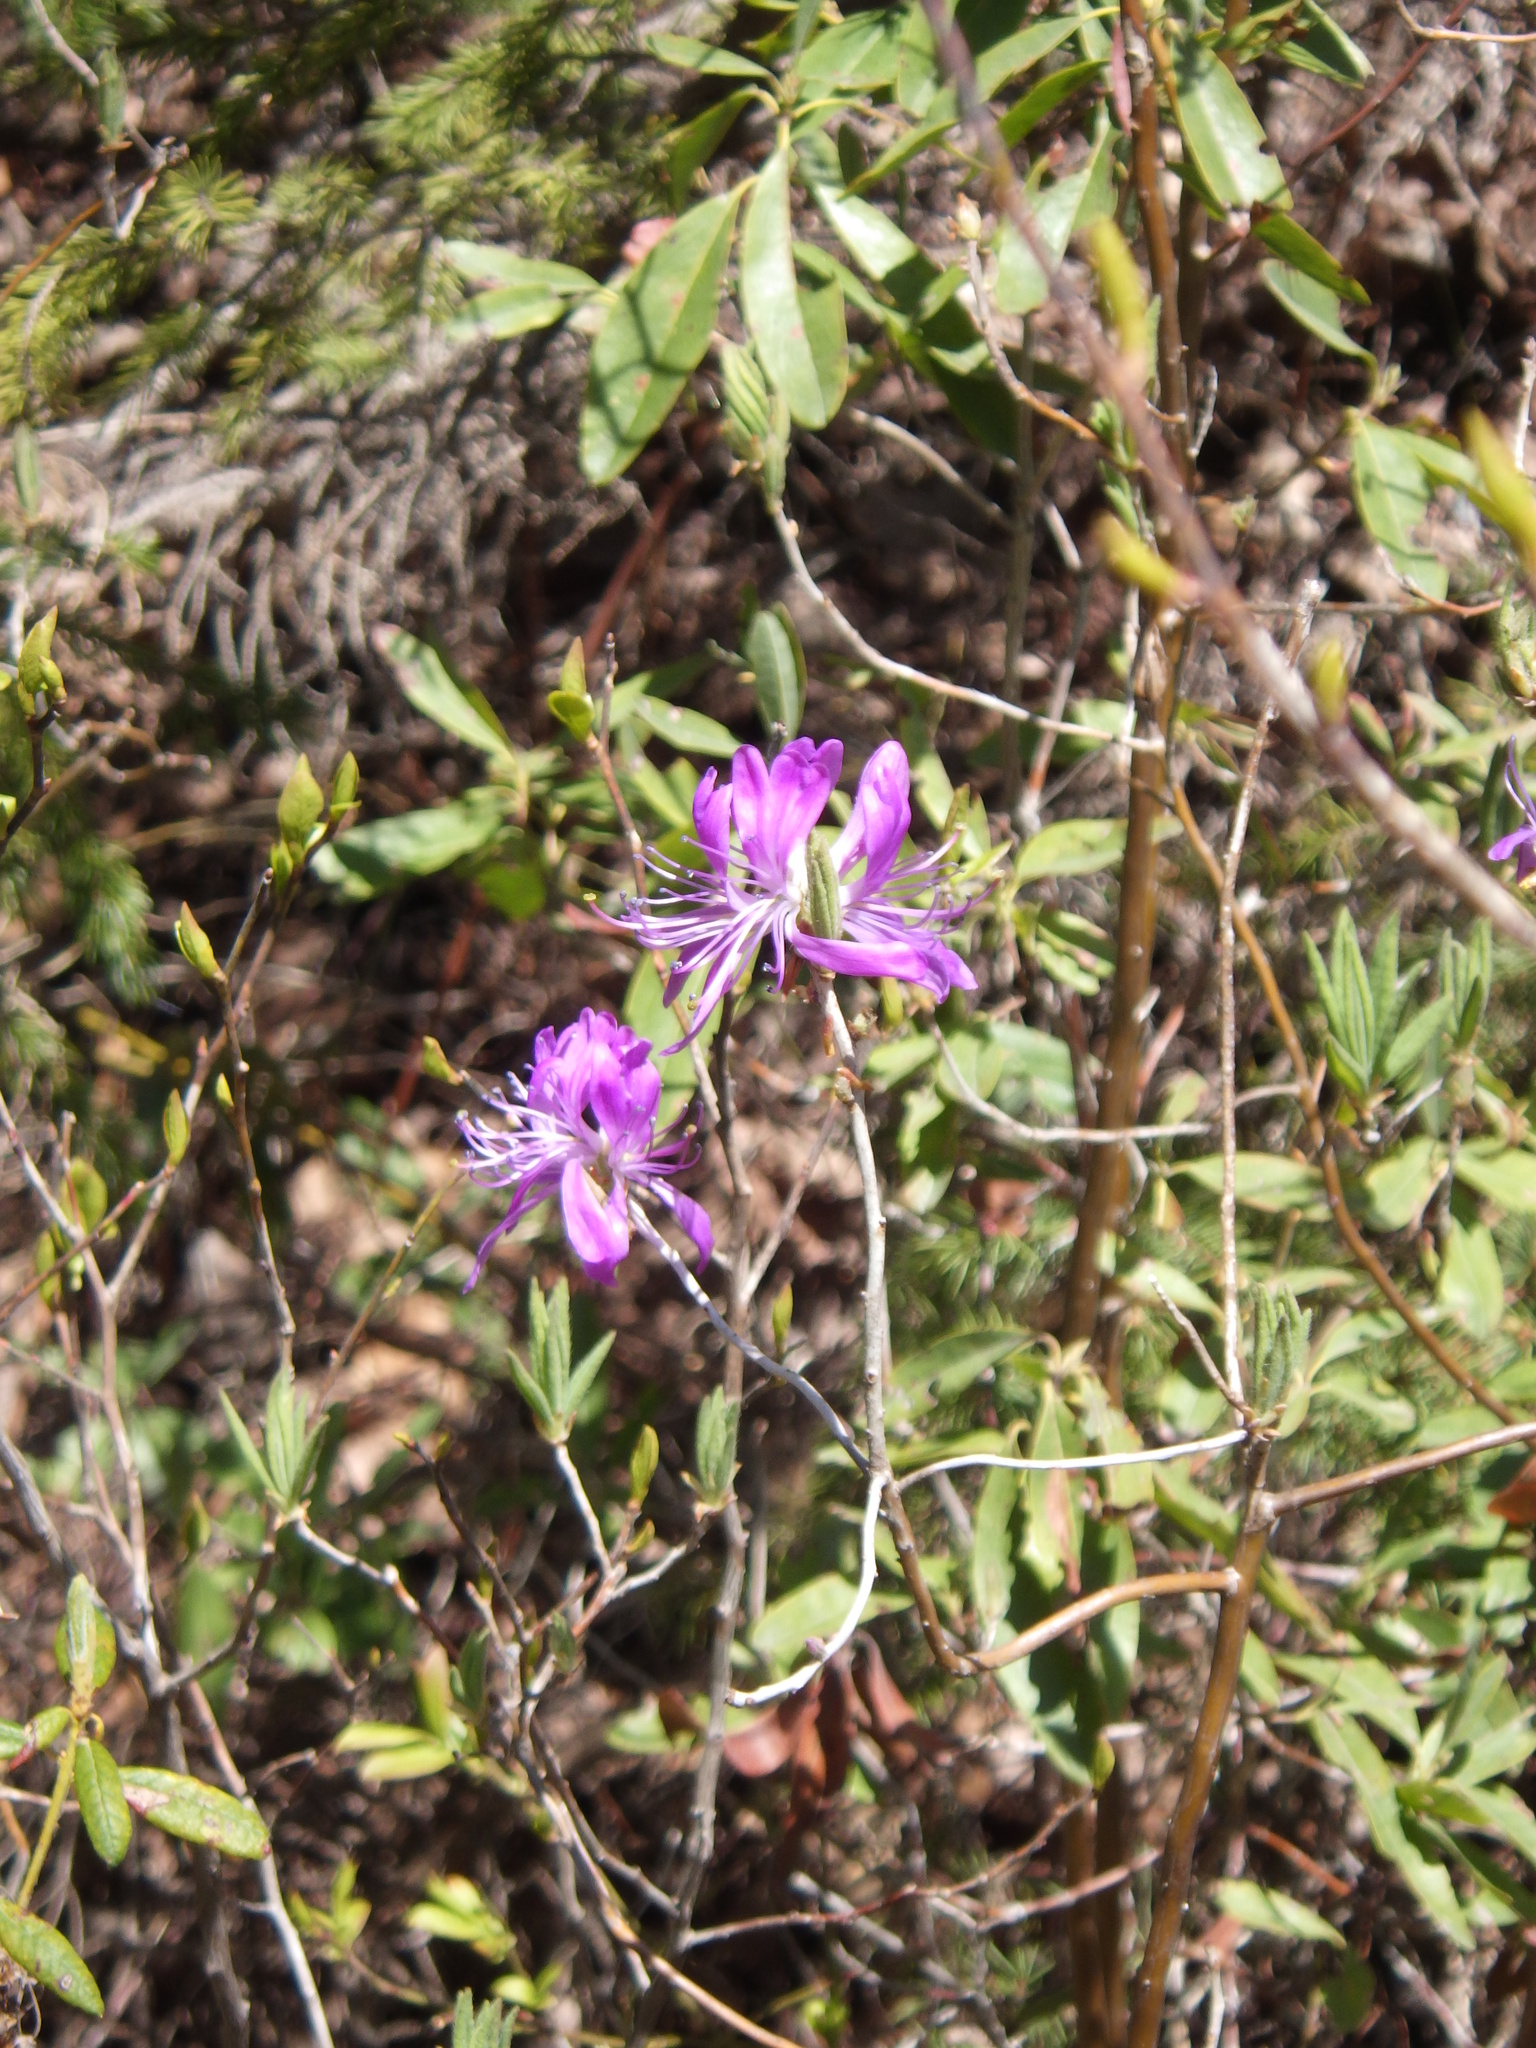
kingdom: Plantae
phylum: Tracheophyta
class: Magnoliopsida
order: Ericales
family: Ericaceae
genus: Rhododendron
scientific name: Rhododendron canadense
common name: Rhodora
